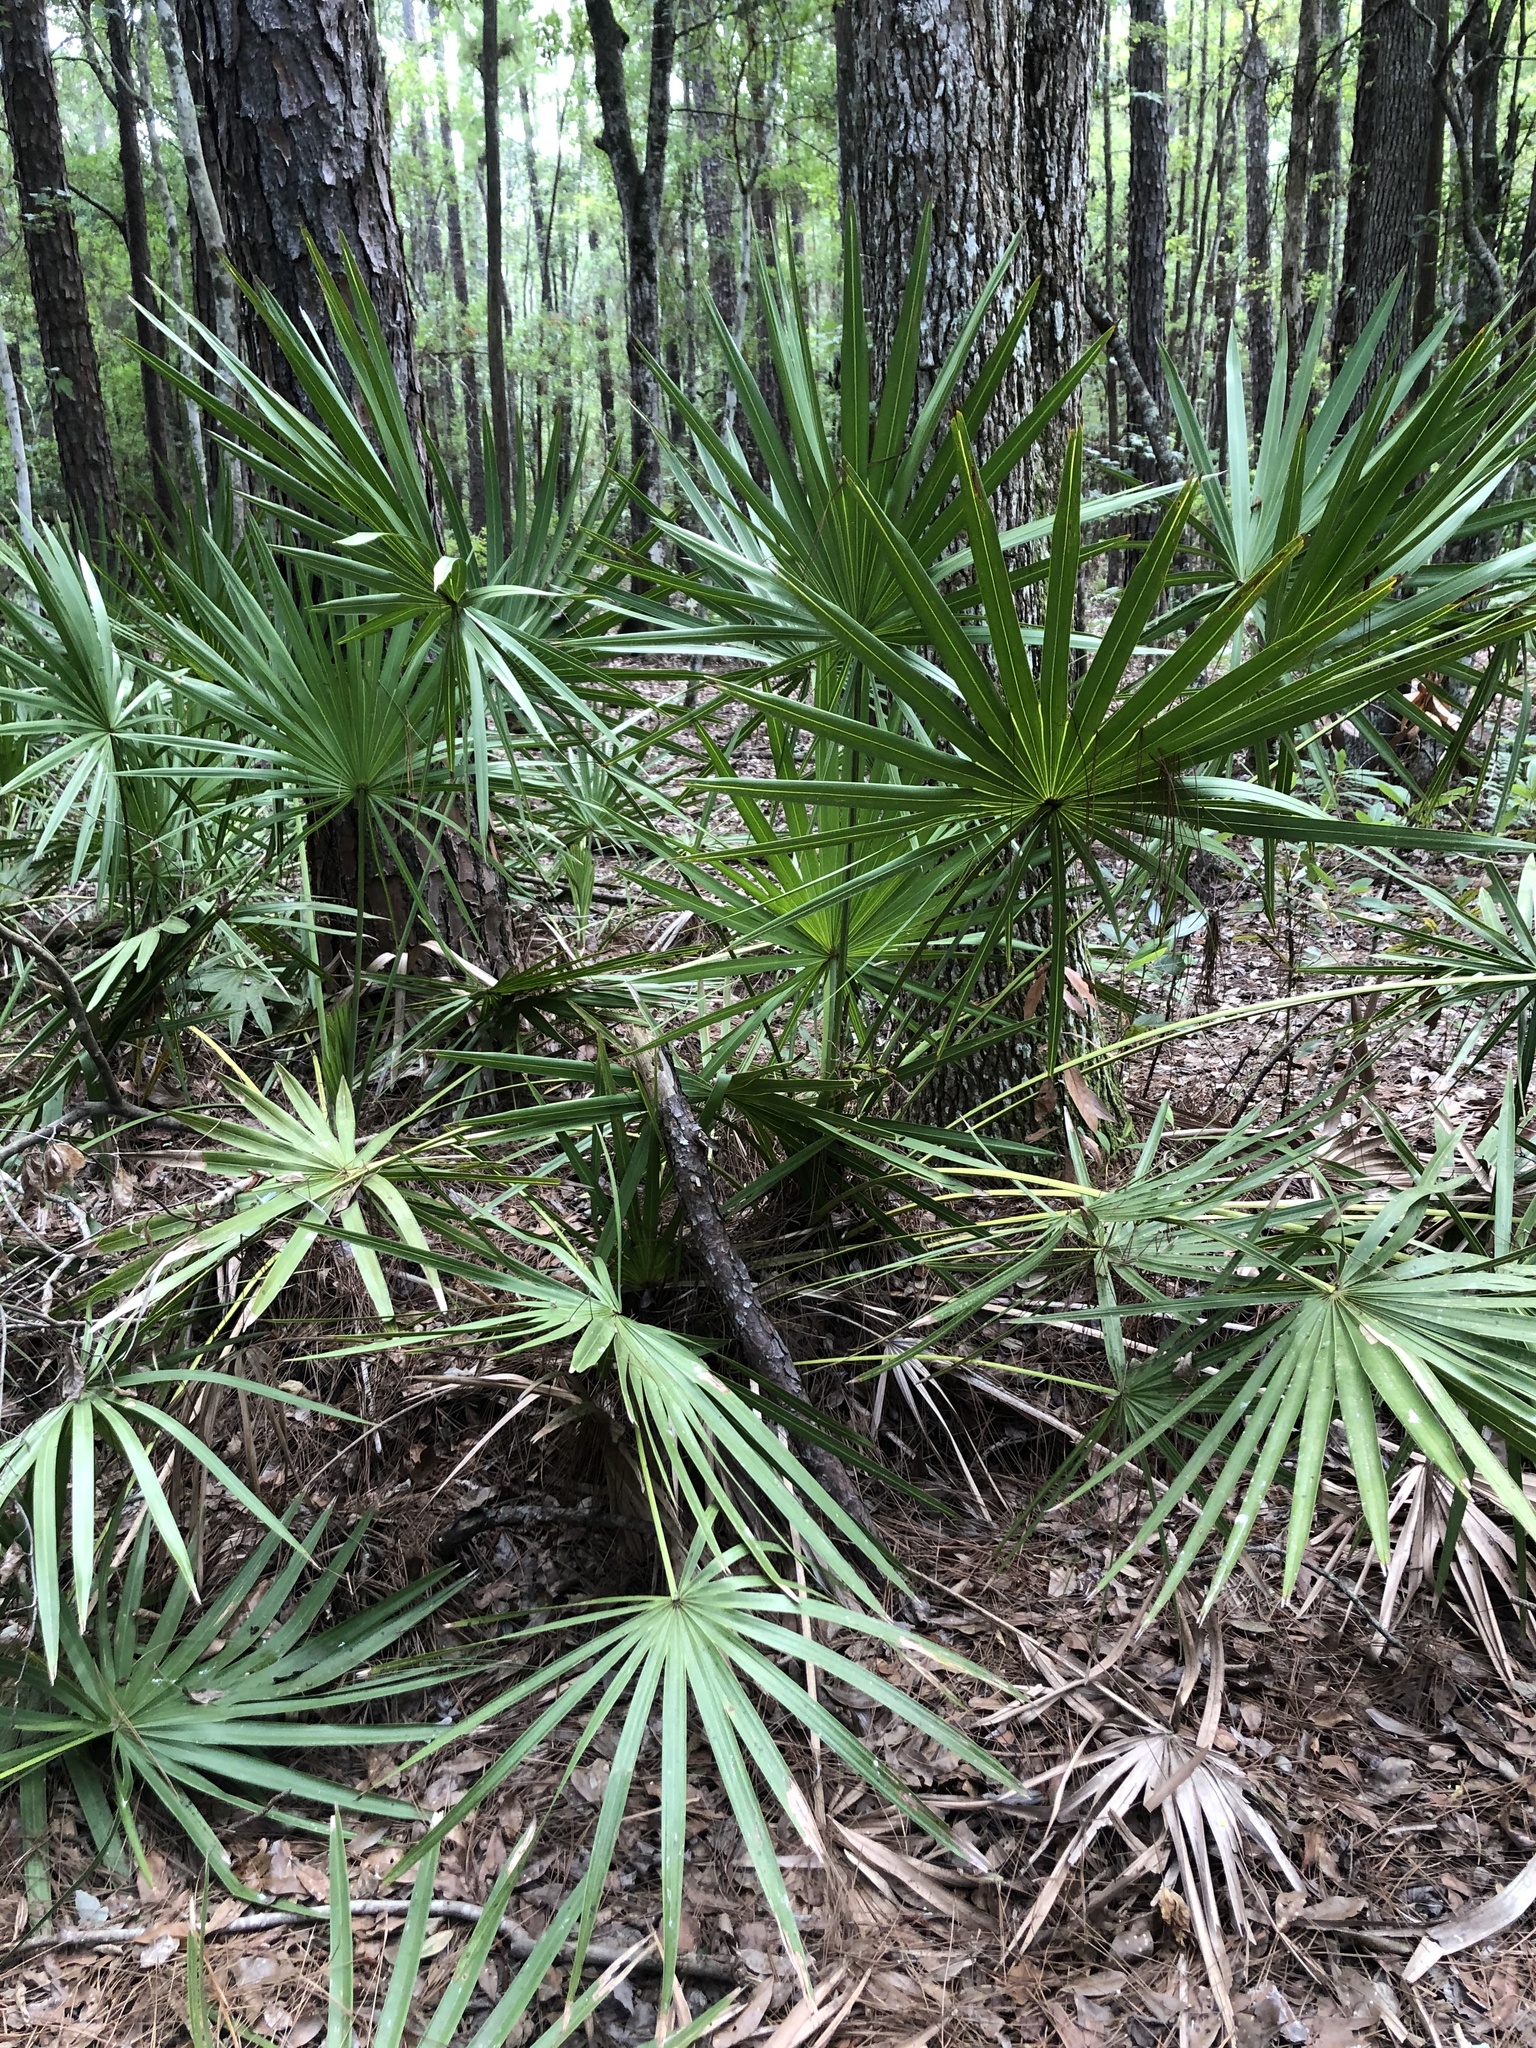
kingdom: Plantae
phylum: Tracheophyta
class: Liliopsida
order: Arecales
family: Arecaceae
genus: Serenoa
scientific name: Serenoa repens
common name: Saw-palmetto
